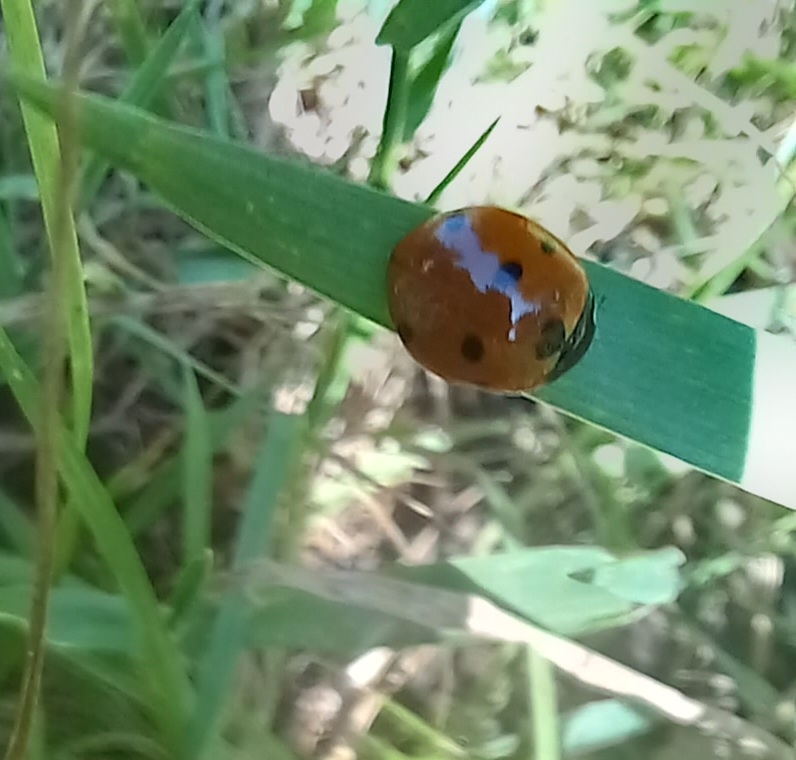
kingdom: Animalia
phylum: Arthropoda
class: Insecta
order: Coleoptera
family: Coccinellidae
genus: Coccinella
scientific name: Coccinella septempunctata
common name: Sevenspotted lady beetle
